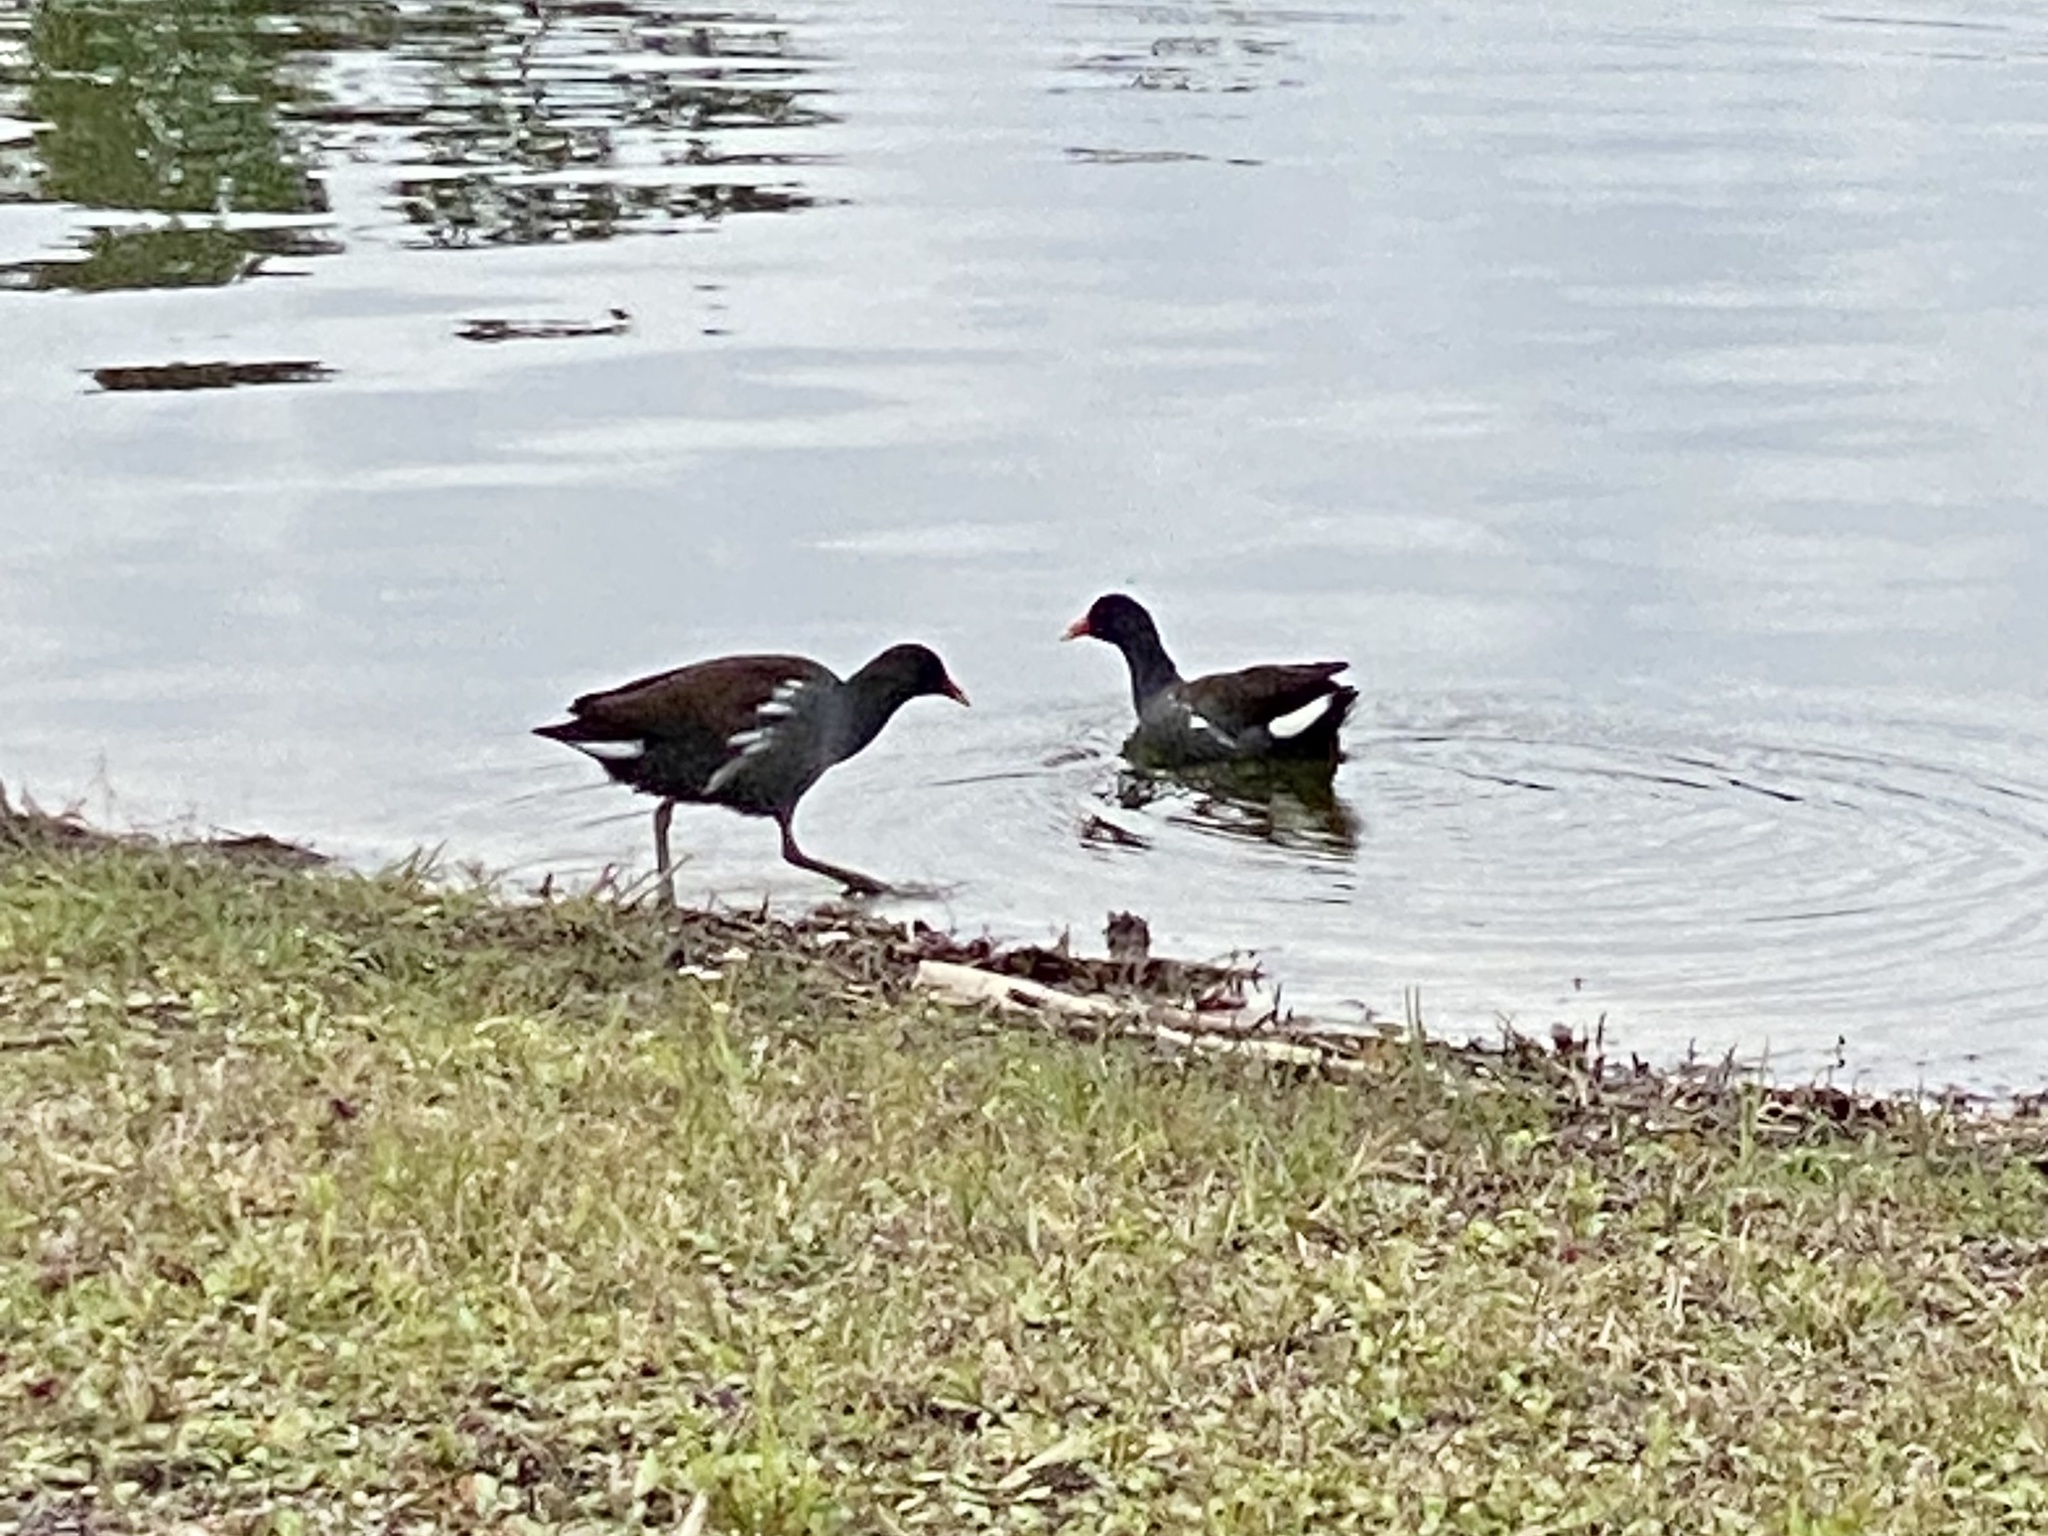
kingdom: Animalia
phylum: Chordata
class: Aves
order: Gruiformes
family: Rallidae
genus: Gallinula
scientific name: Gallinula chloropus
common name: Common moorhen
